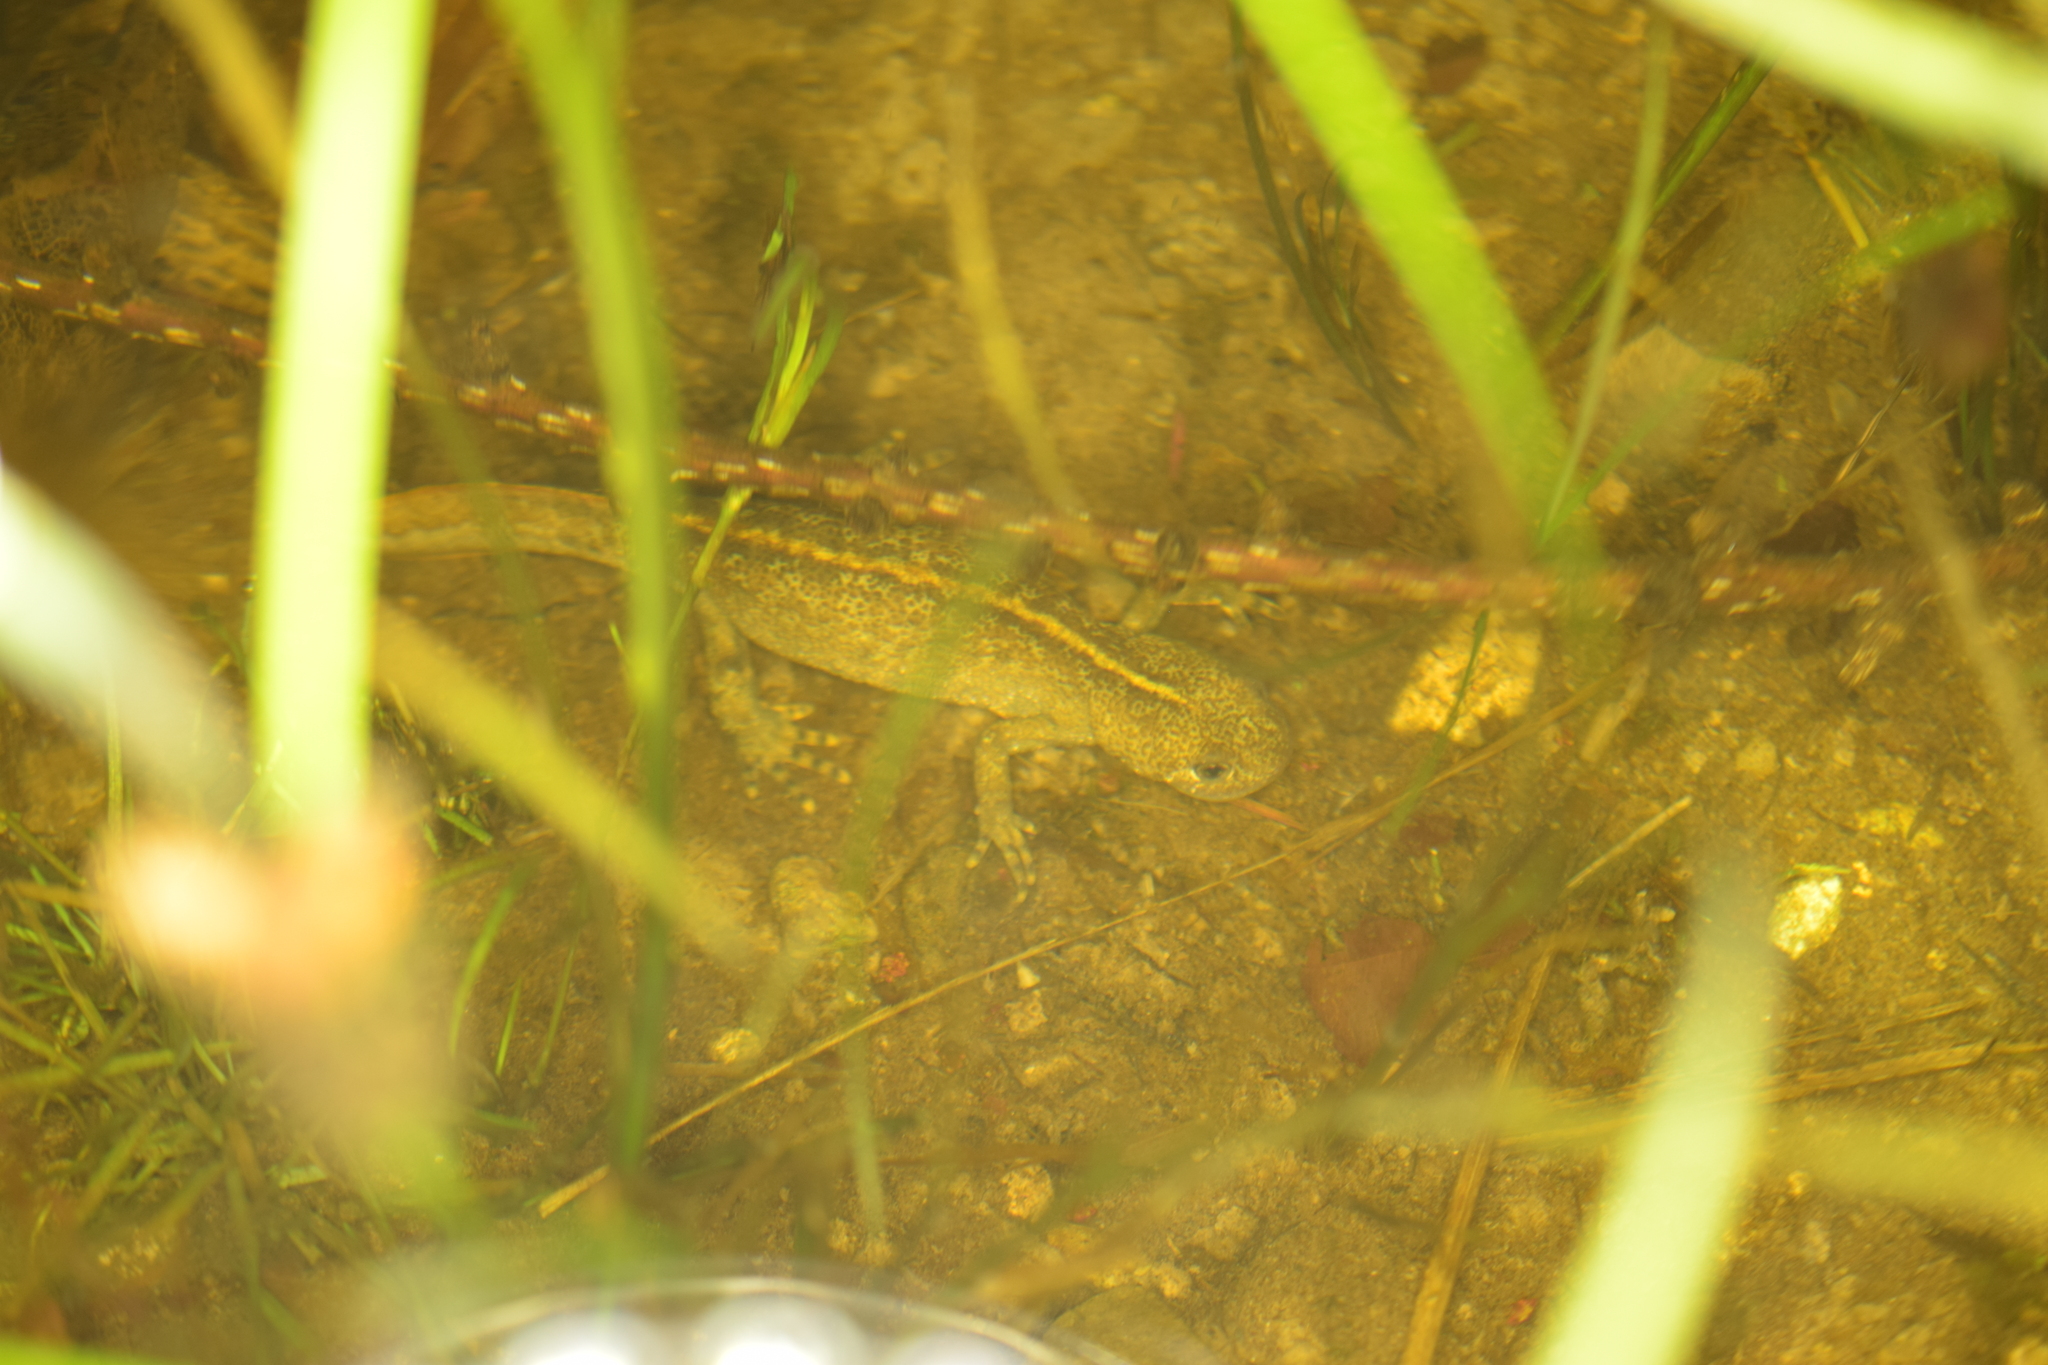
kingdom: Animalia
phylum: Chordata
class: Amphibia
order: Caudata
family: Salamandridae
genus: Triturus
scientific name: Triturus carnifex
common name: Italian crested newt
